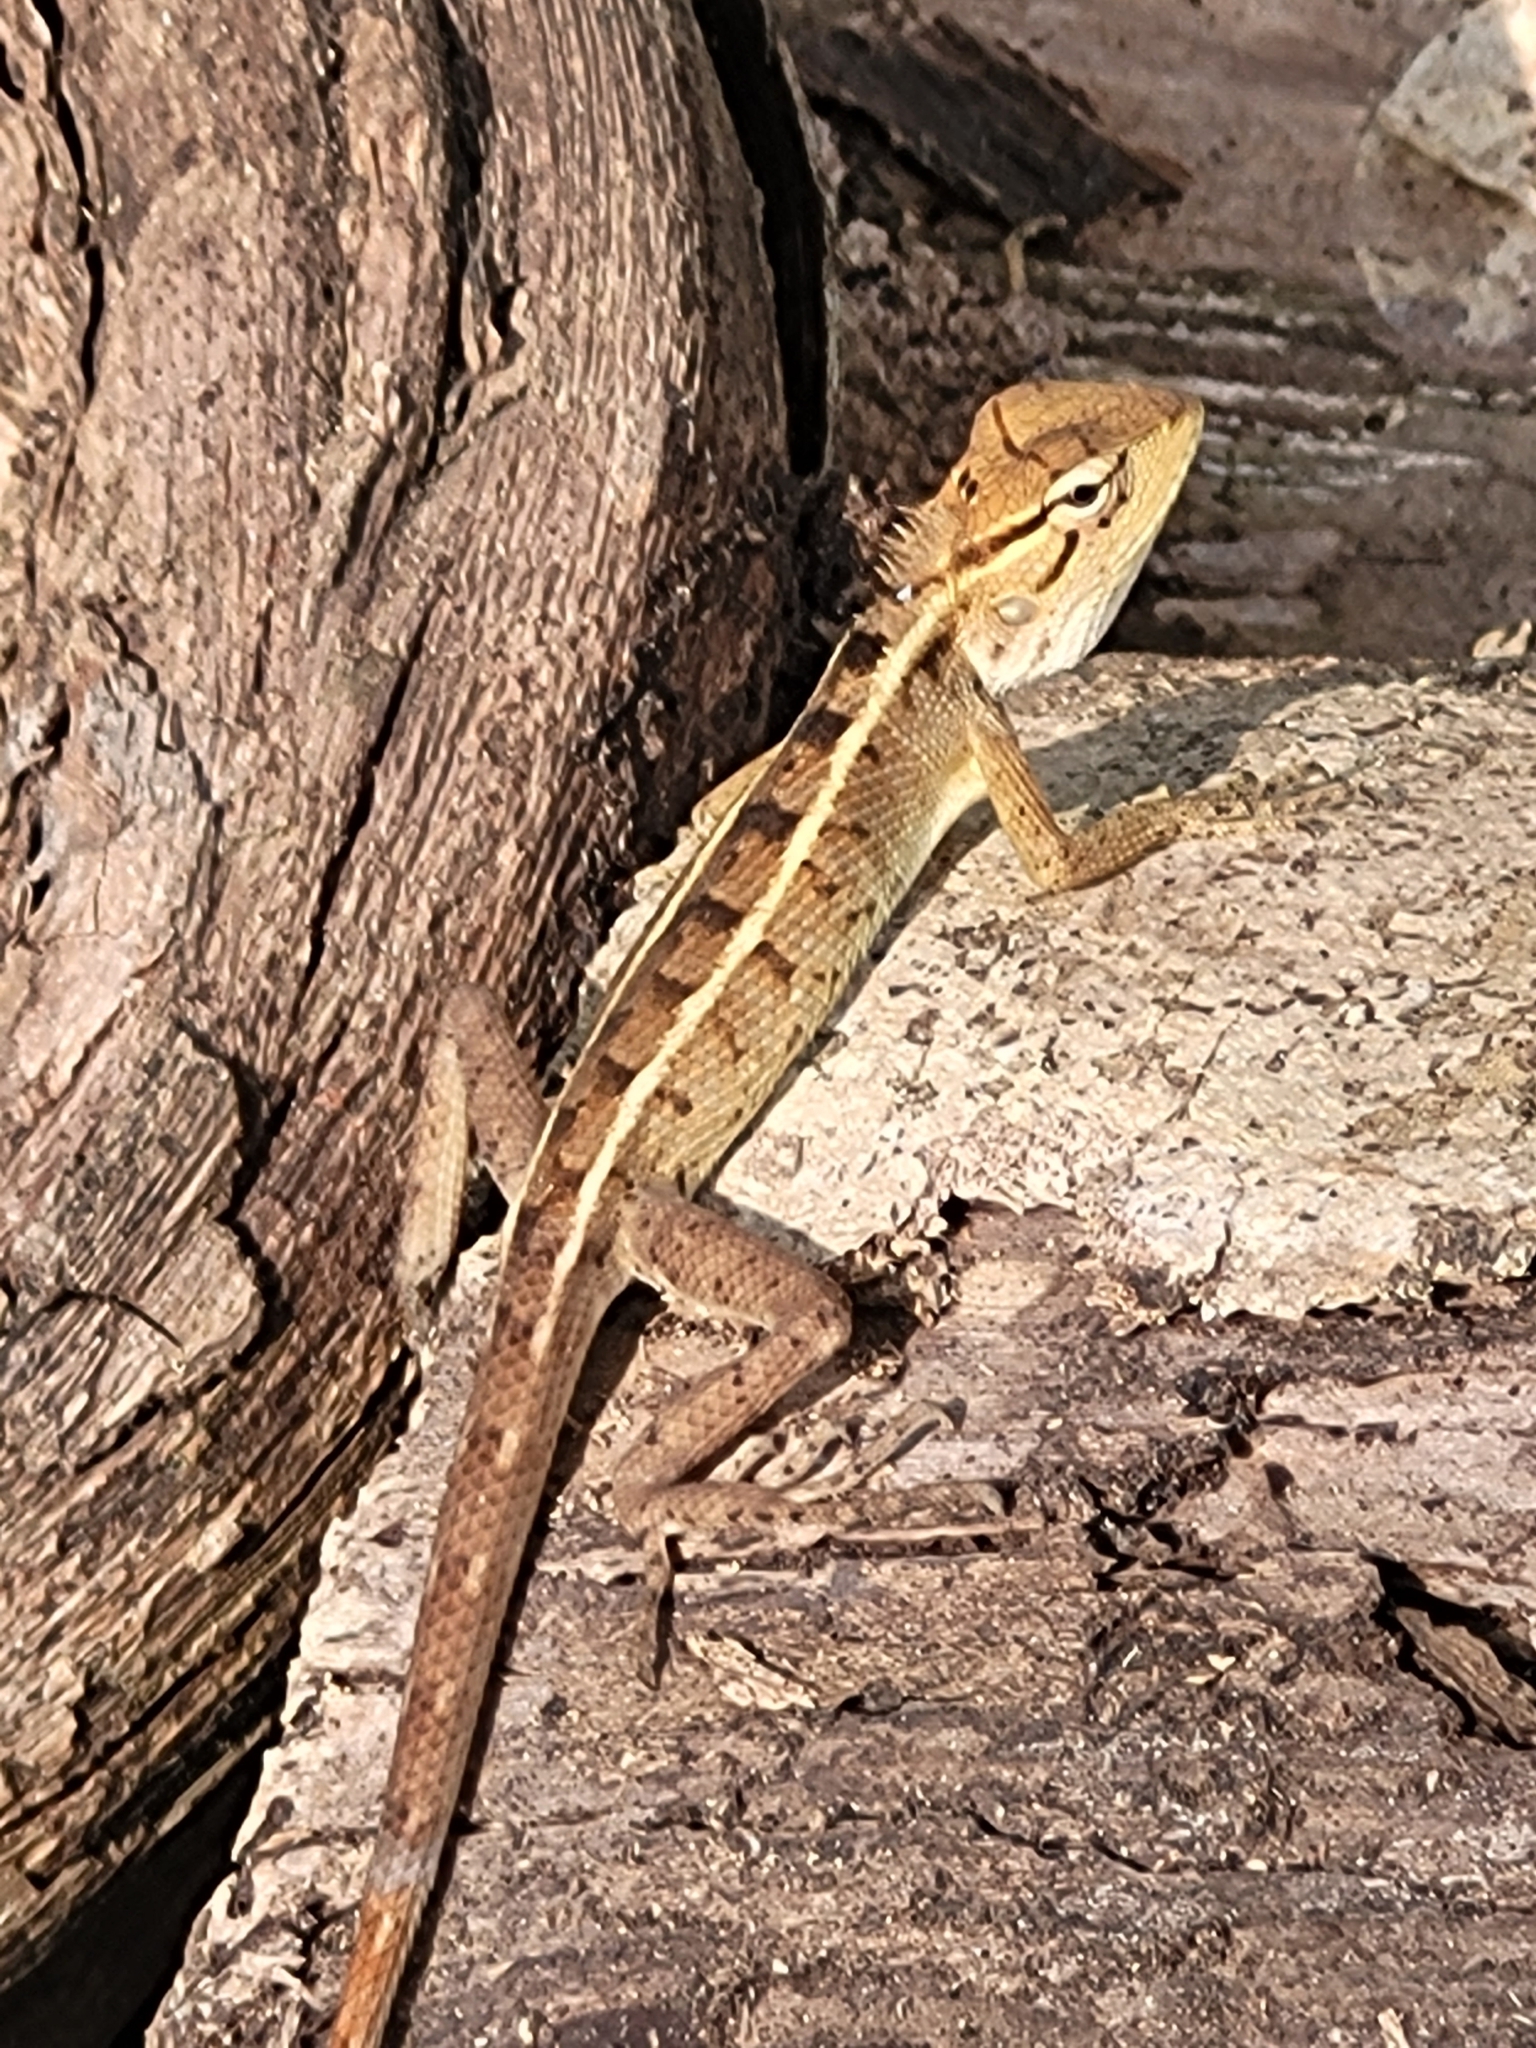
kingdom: Animalia
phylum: Chordata
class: Squamata
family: Agamidae
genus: Calotes
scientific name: Calotes versicolor
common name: Oriental garden lizard
